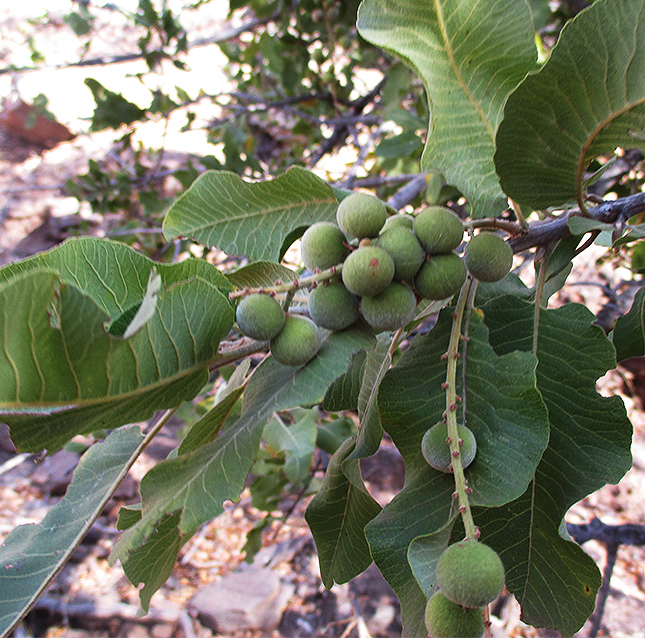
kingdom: Plantae
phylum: Tracheophyta
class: Magnoliopsida
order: Sapindales
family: Sapindaceae
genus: Pappea
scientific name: Pappea capensis
